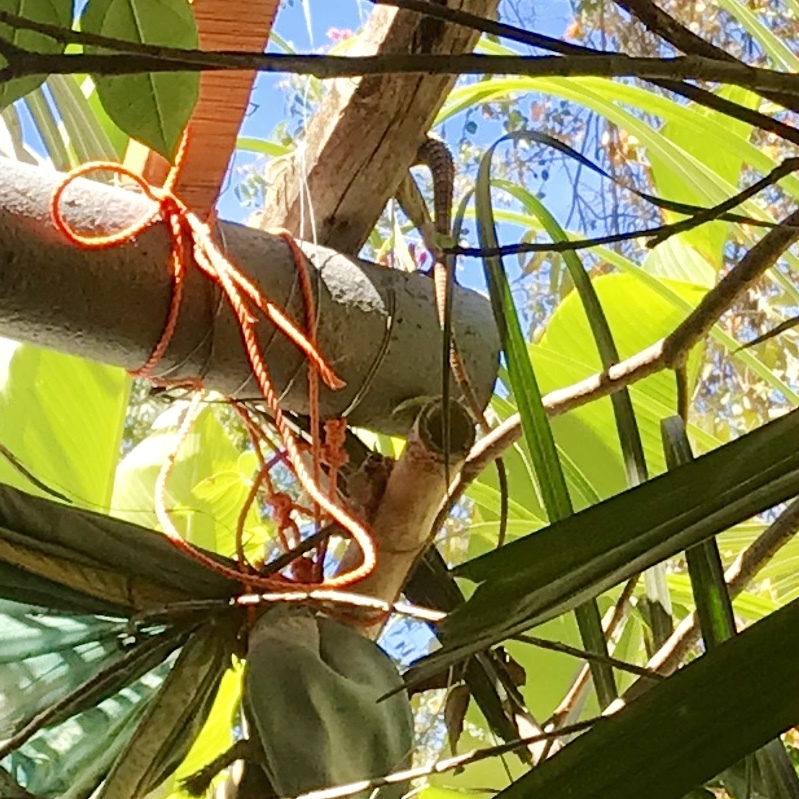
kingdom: Animalia
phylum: Chordata
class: Squamata
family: Iguanidae
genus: Ctenosaura
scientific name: Ctenosaura pectinata
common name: Guerreran spiny-tailed iguana
